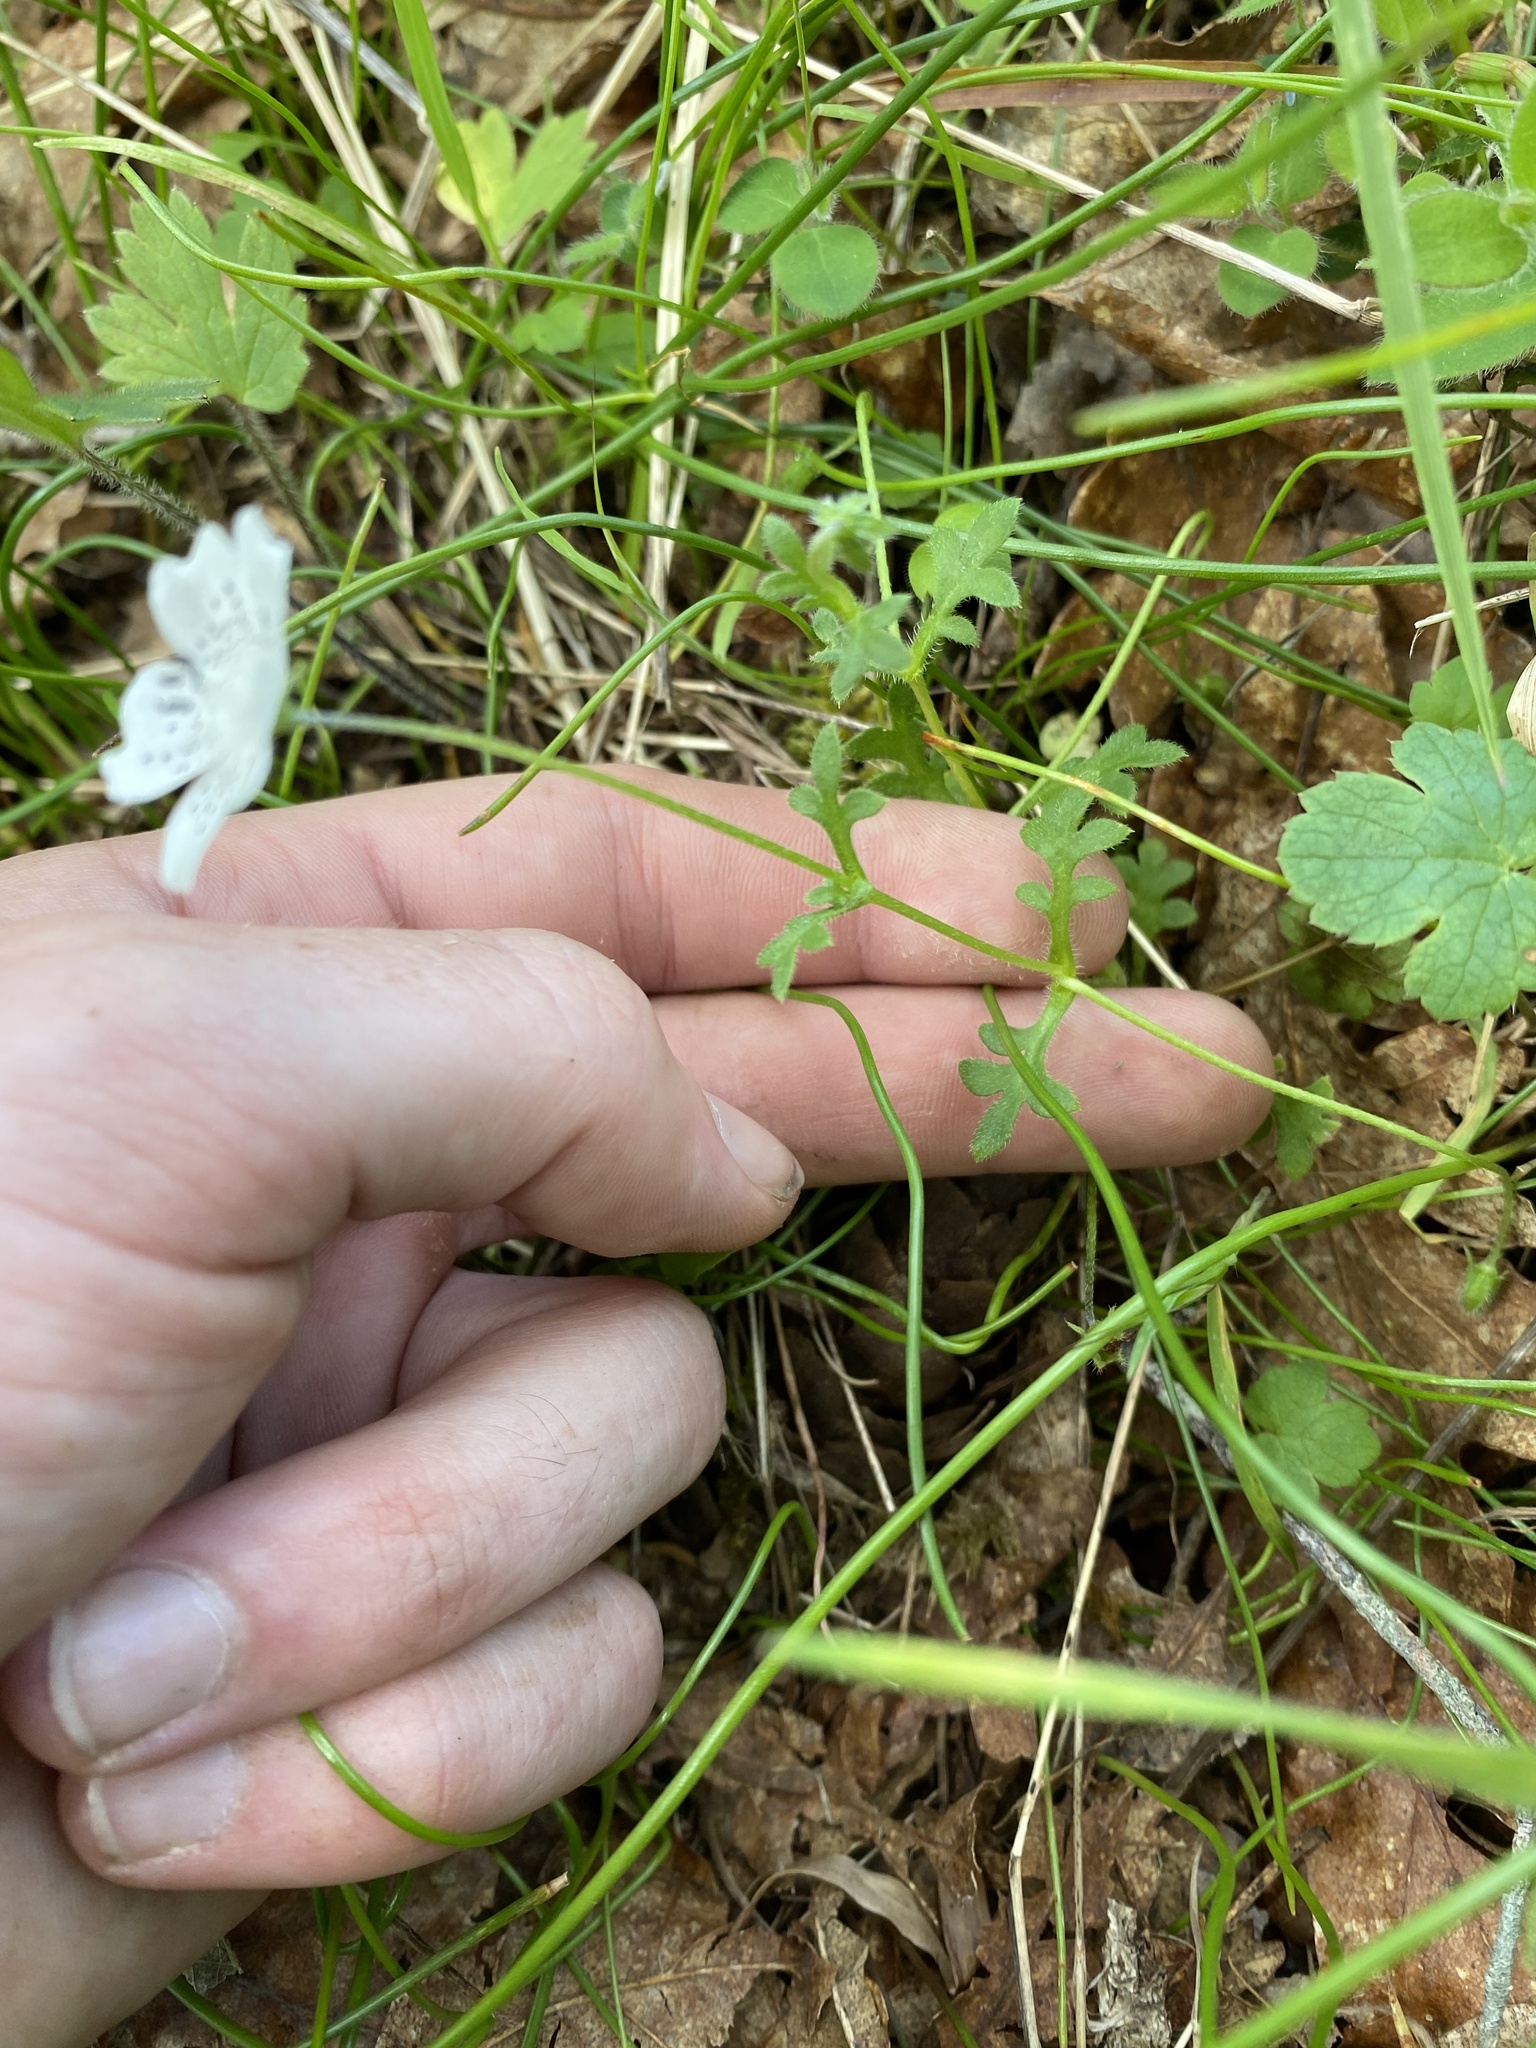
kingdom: Plantae
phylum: Tracheophyta
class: Magnoliopsida
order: Boraginales
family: Hydrophyllaceae
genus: Nemophila
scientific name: Nemophila menziesii
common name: Baby's-blue-eyes
